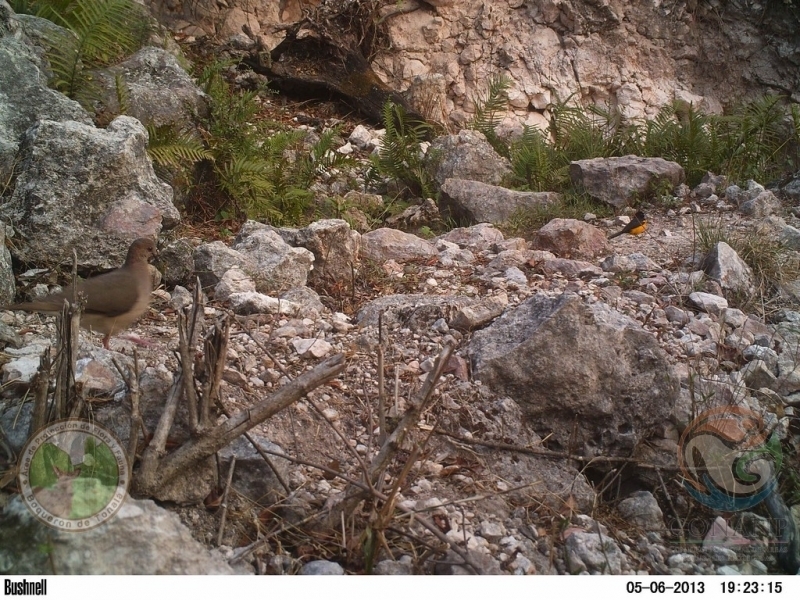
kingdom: Animalia
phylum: Chordata
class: Aves
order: Columbiformes
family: Columbidae
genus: Leptotila
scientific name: Leptotila verreauxi
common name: White-tipped dove
